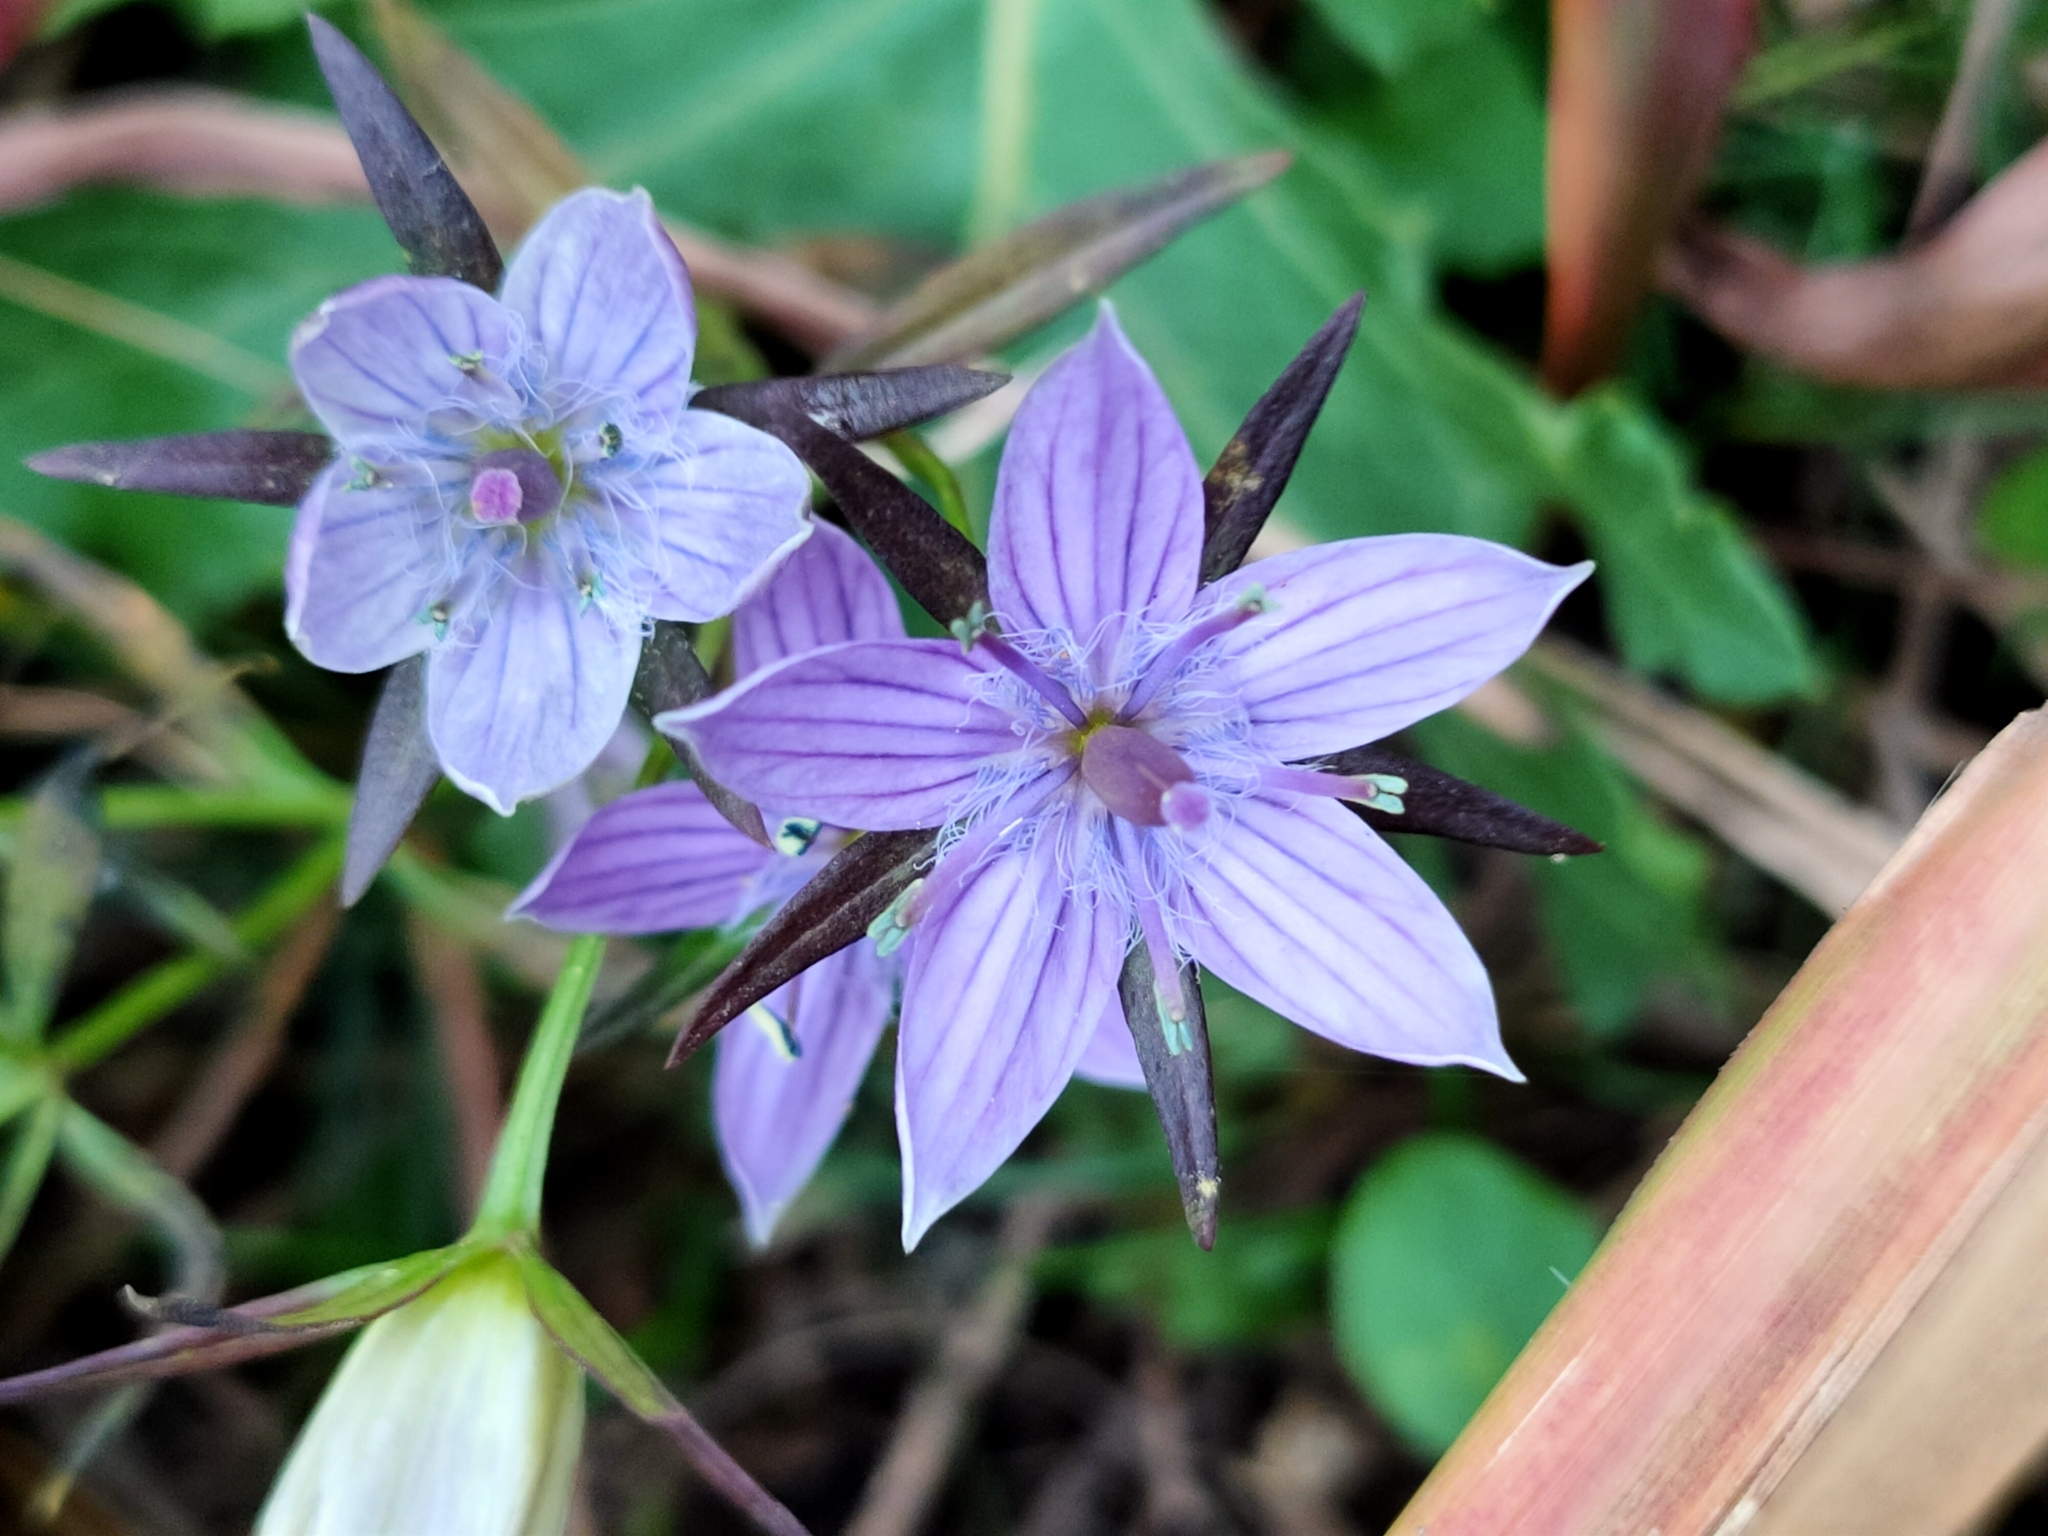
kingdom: Plantae
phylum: Tracheophyta
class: Magnoliopsida
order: Gentianales
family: Gentianaceae
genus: Swertia
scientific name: Swertia pseudochinensis
